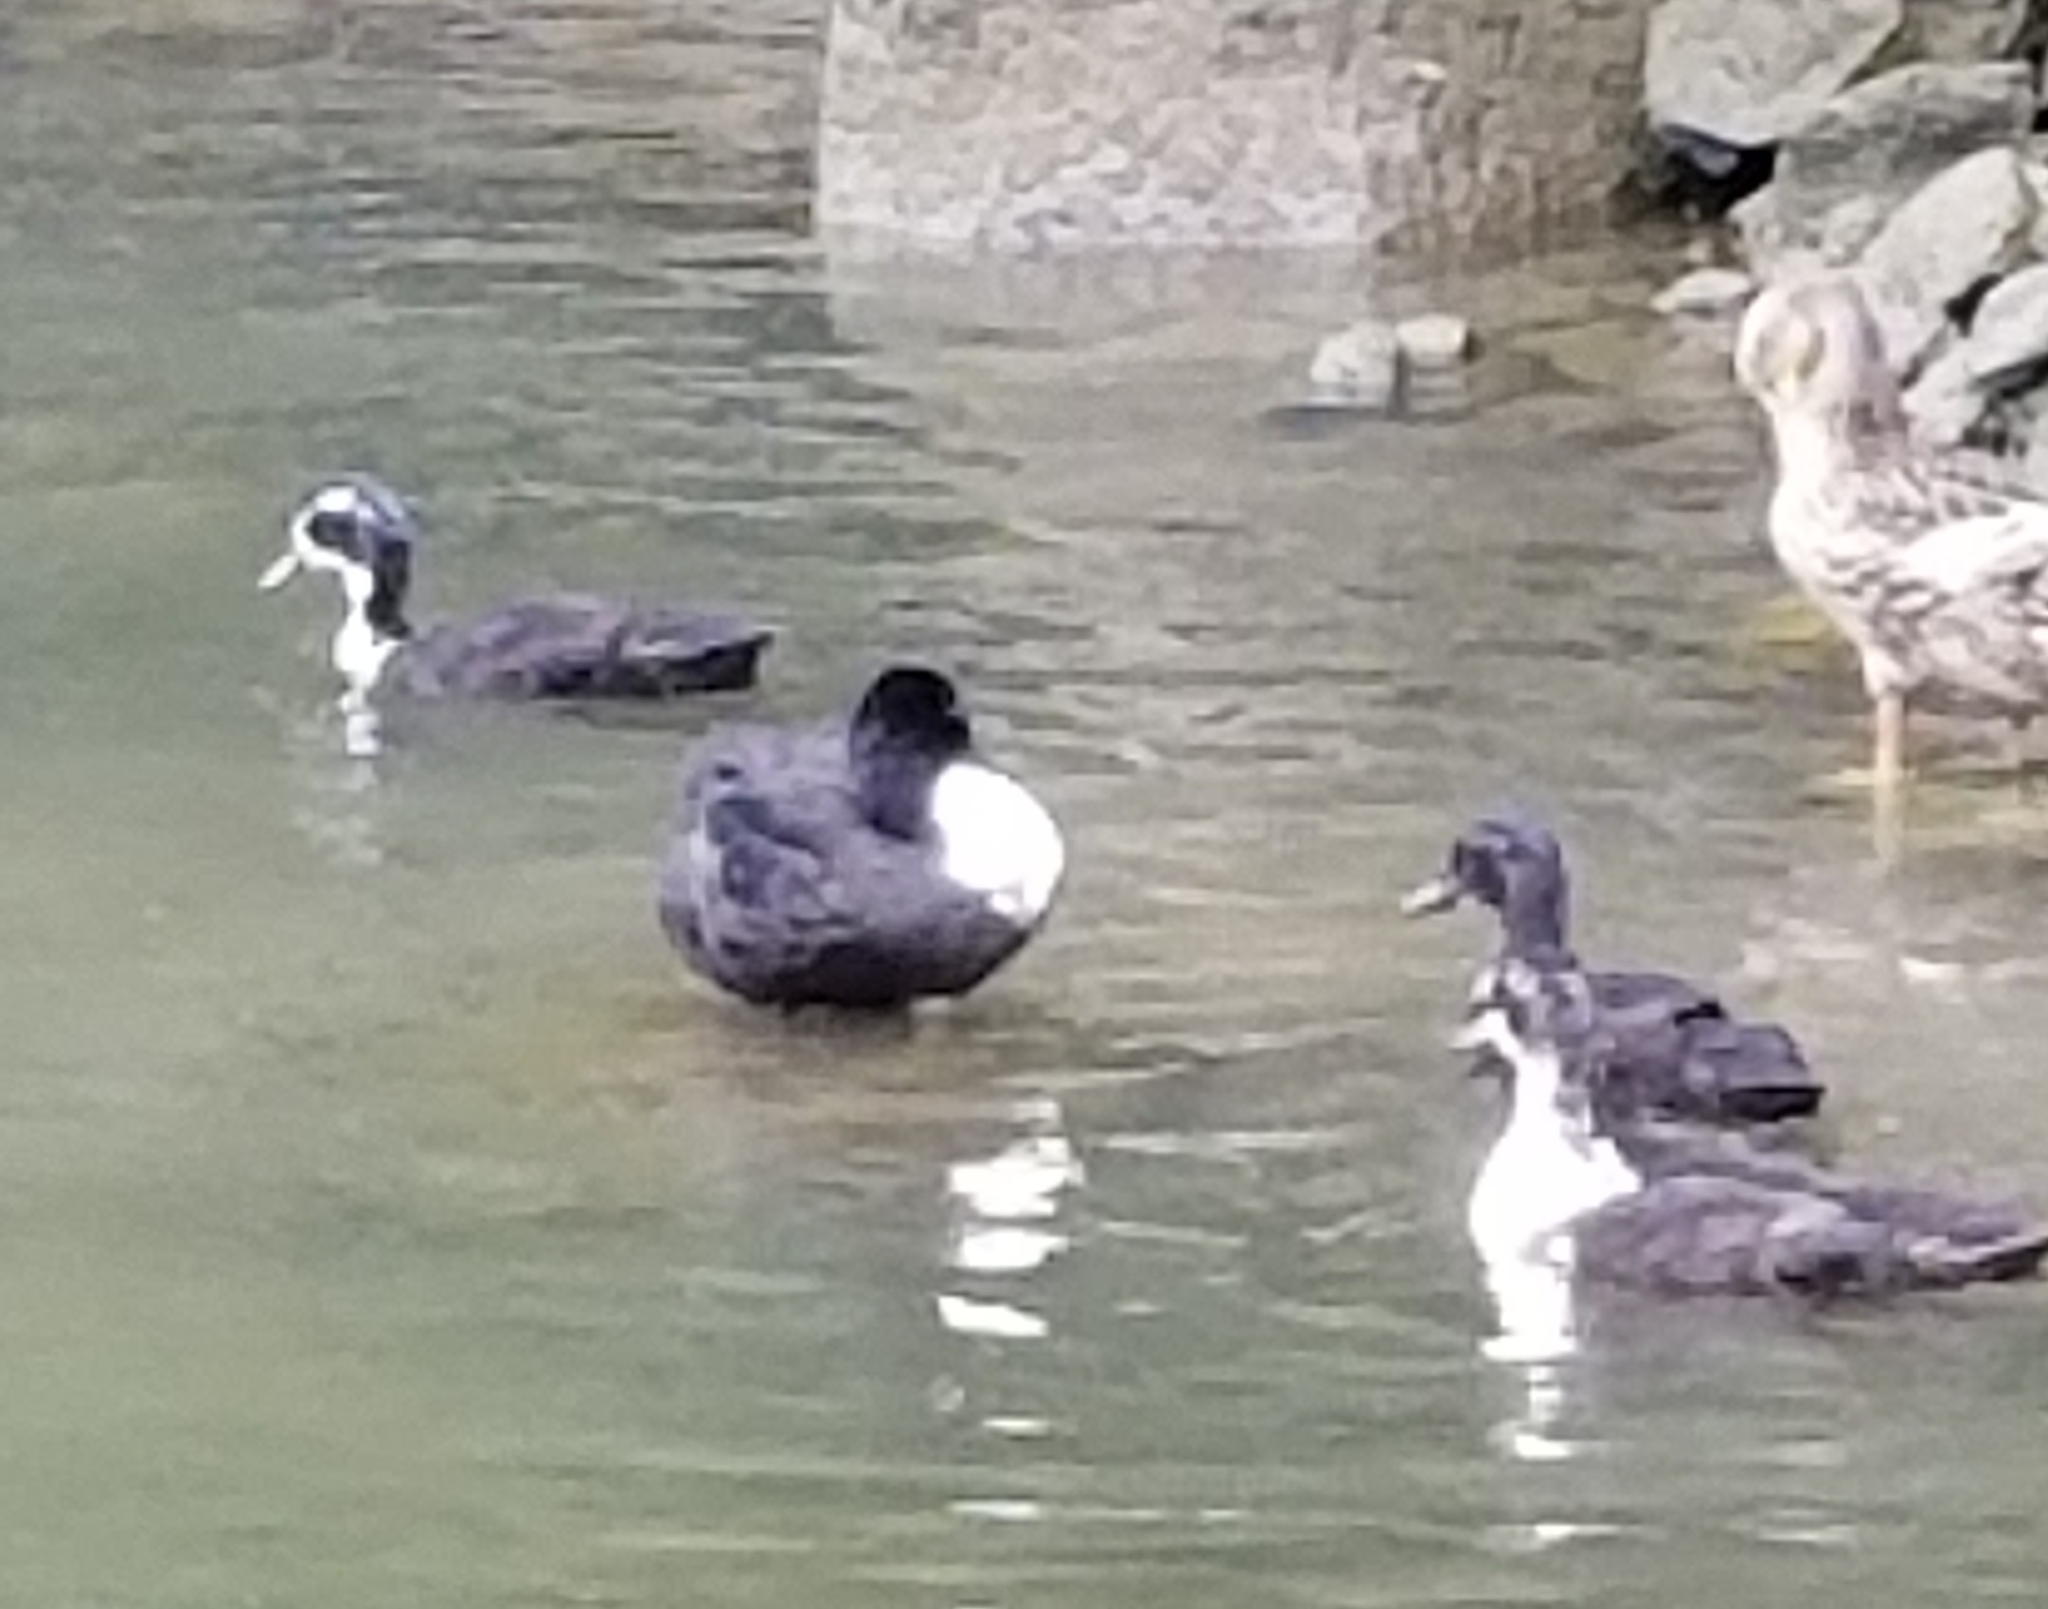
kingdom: Animalia
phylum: Chordata
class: Aves
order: Anseriformes
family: Anatidae
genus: Anas
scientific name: Anas platyrhynchos
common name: Mallard
